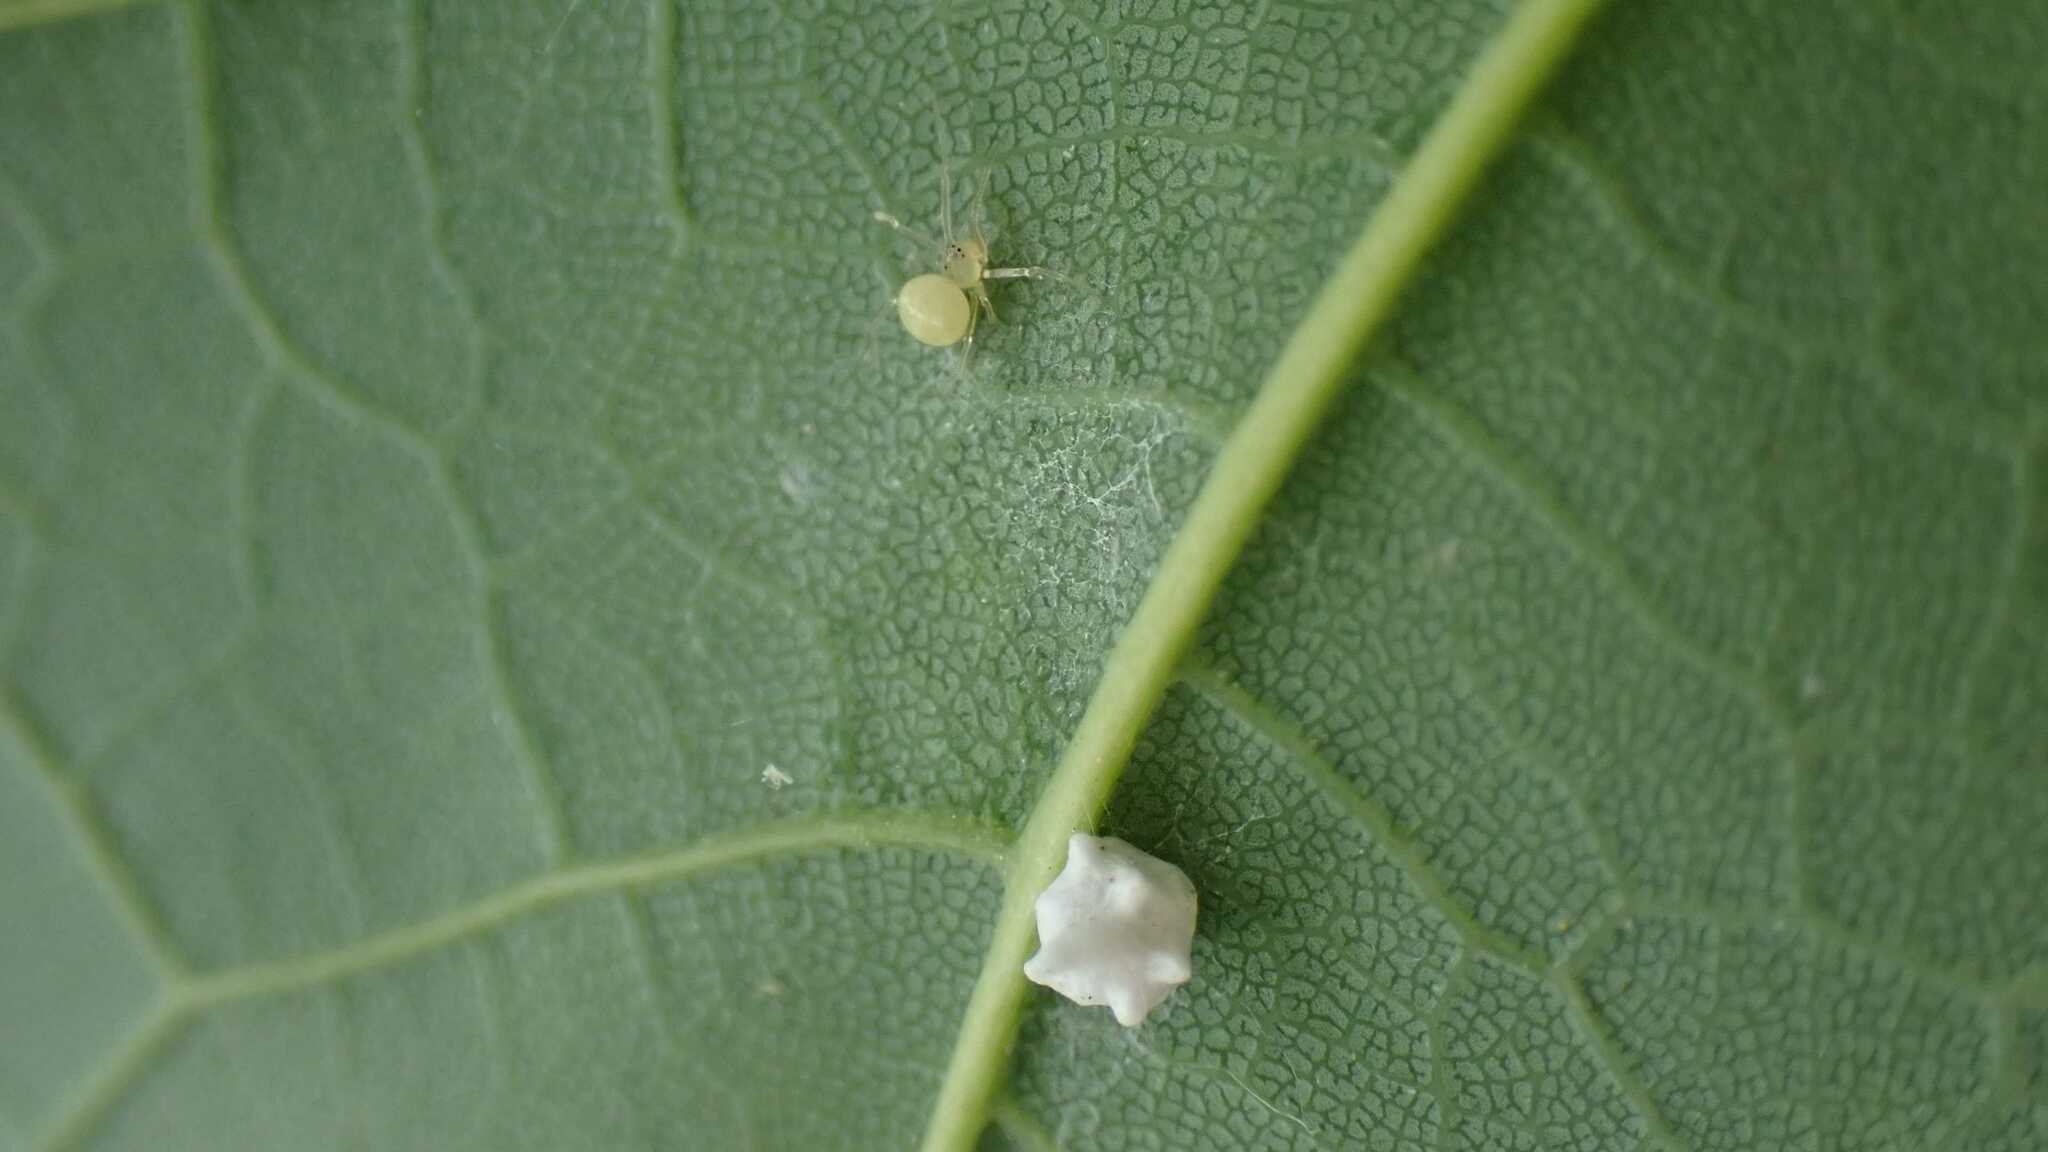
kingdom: Animalia
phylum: Arthropoda
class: Arachnida
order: Araneae
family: Theridiidae
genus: Paidiscura
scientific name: Paidiscura pallens
